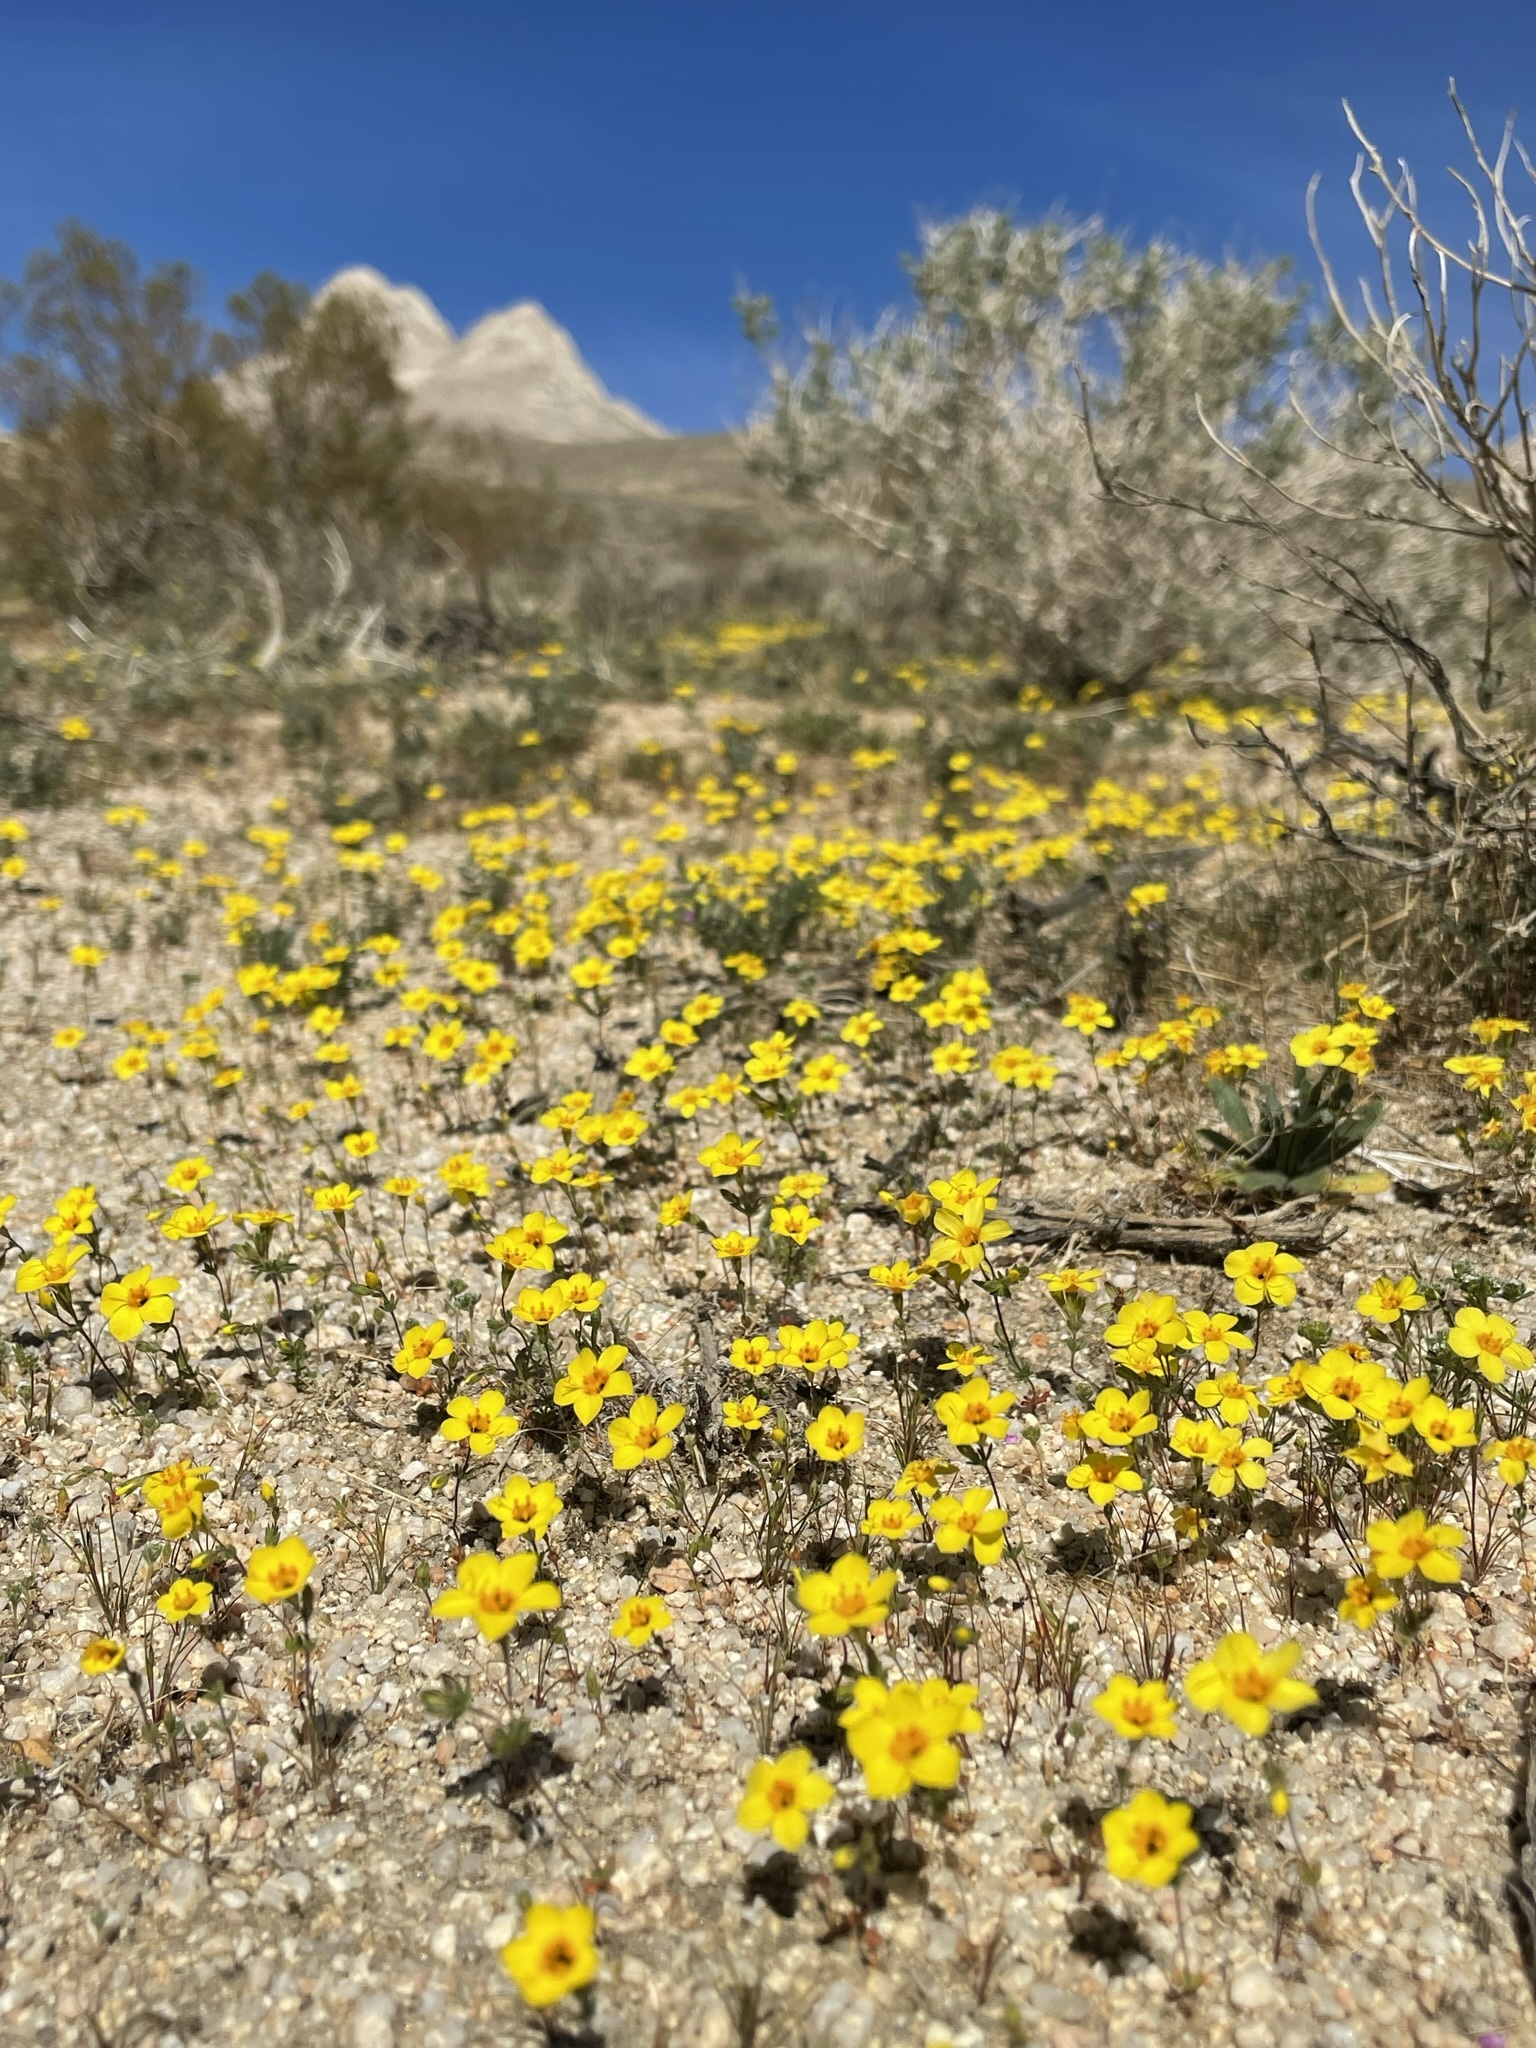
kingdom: Plantae
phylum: Tracheophyta
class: Magnoliopsida
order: Ericales
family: Polemoniaceae
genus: Leptosiphon
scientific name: Leptosiphon chrysanthus
